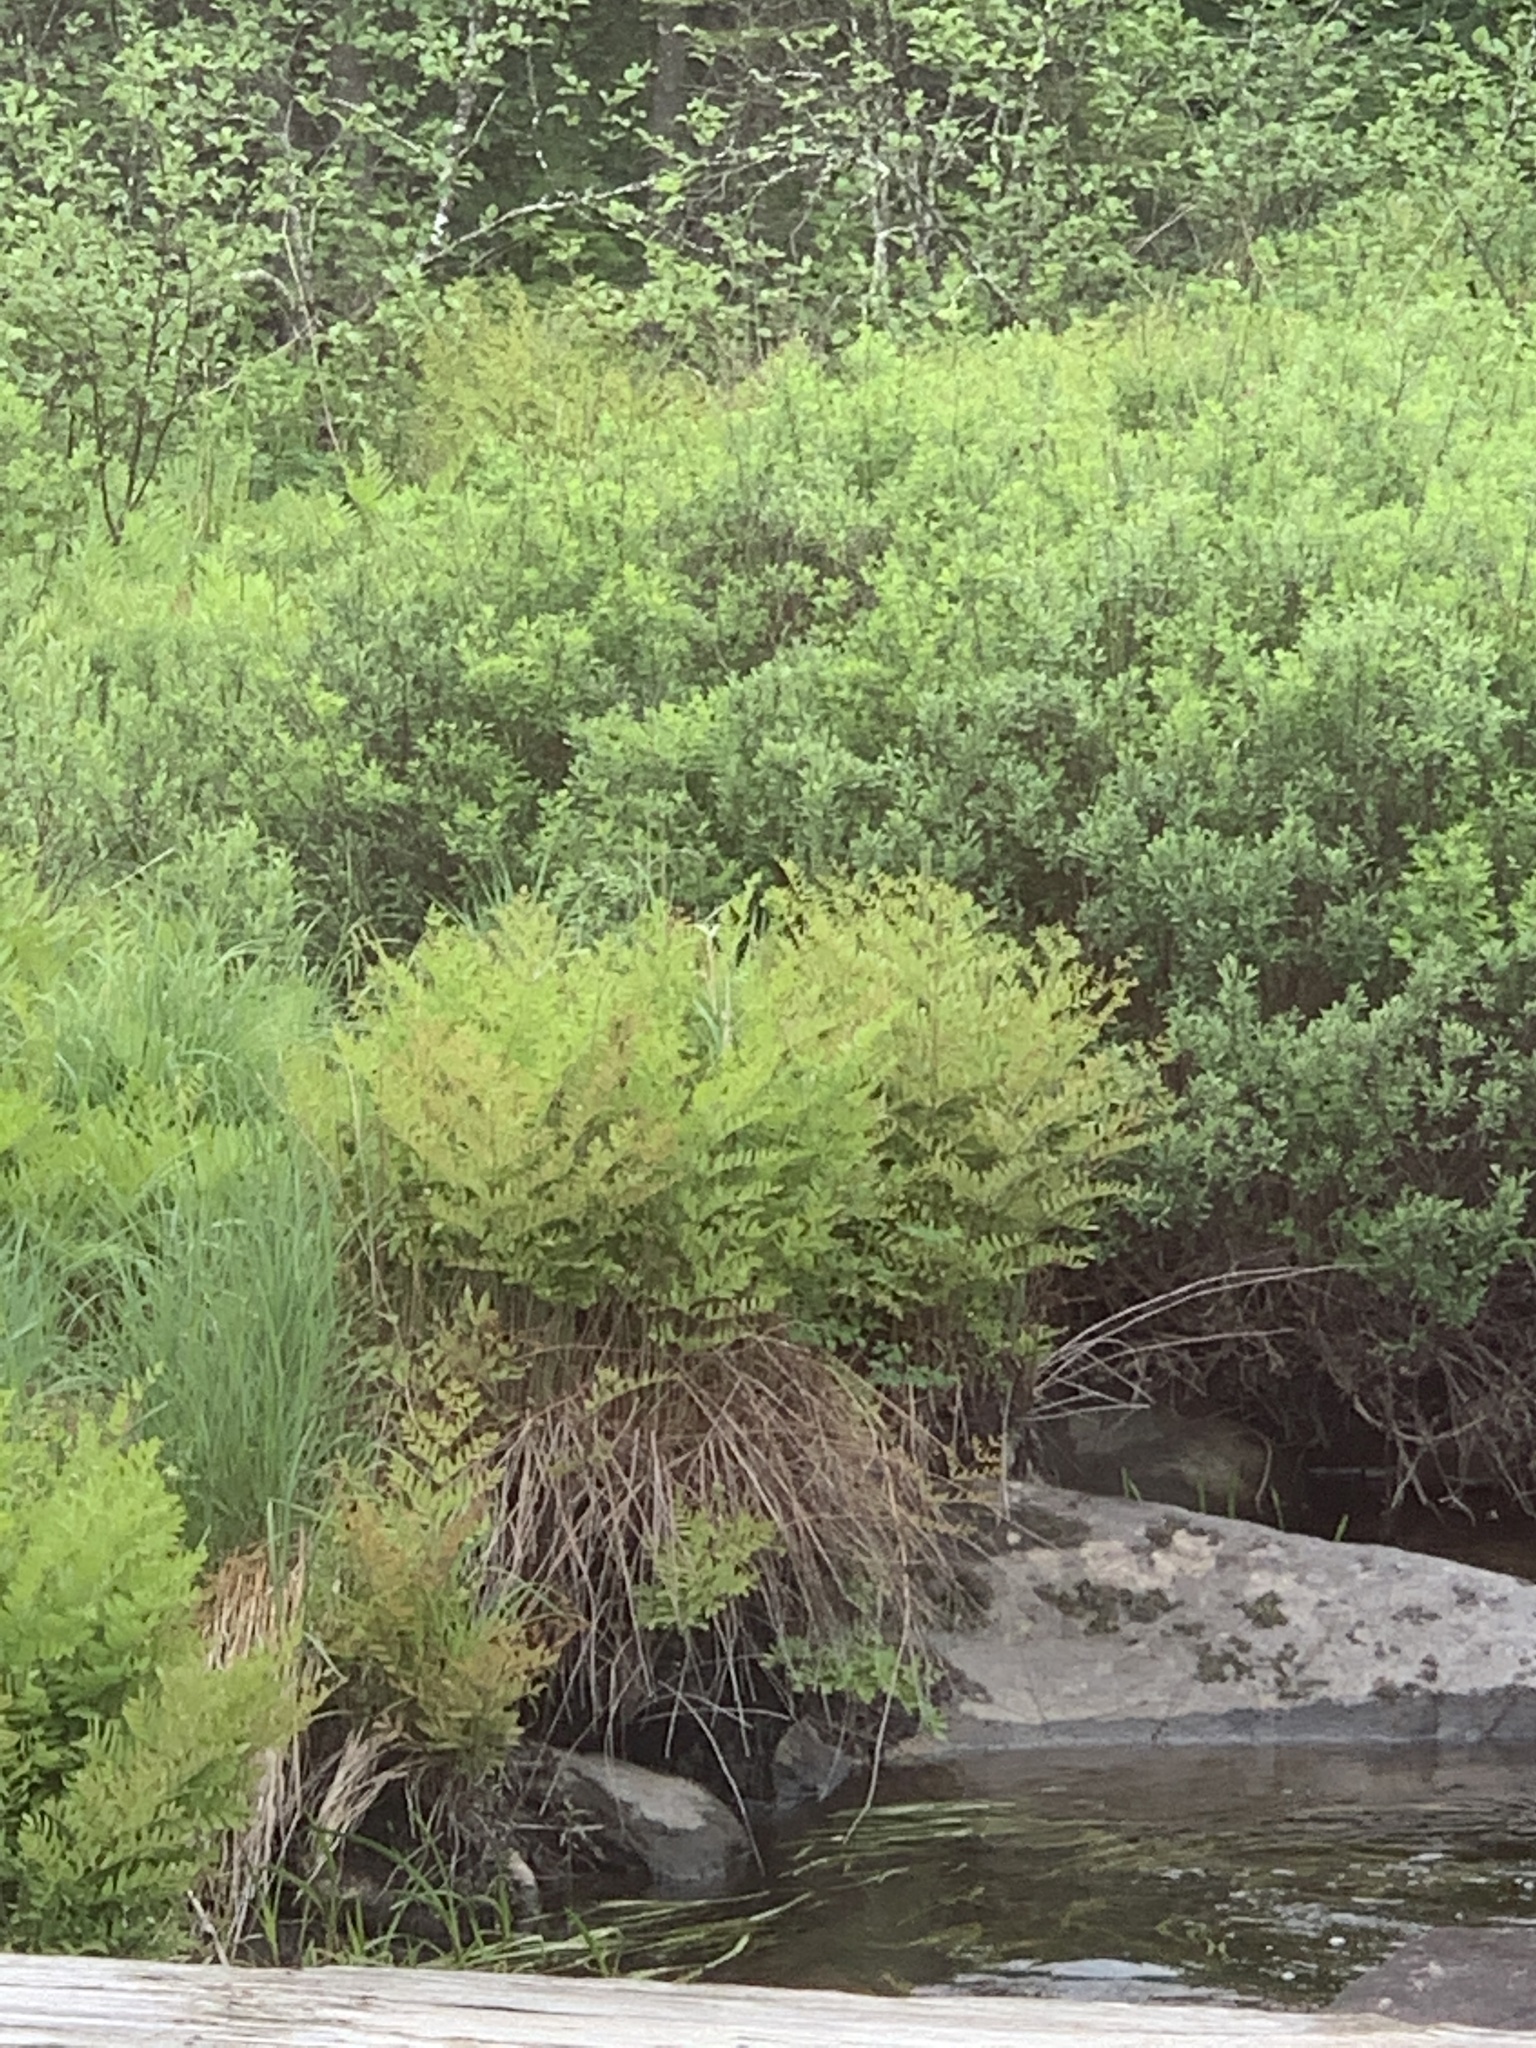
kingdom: Plantae
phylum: Tracheophyta
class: Polypodiopsida
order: Osmundales
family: Osmundaceae
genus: Osmunda
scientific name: Osmunda spectabilis
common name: American royal fern
